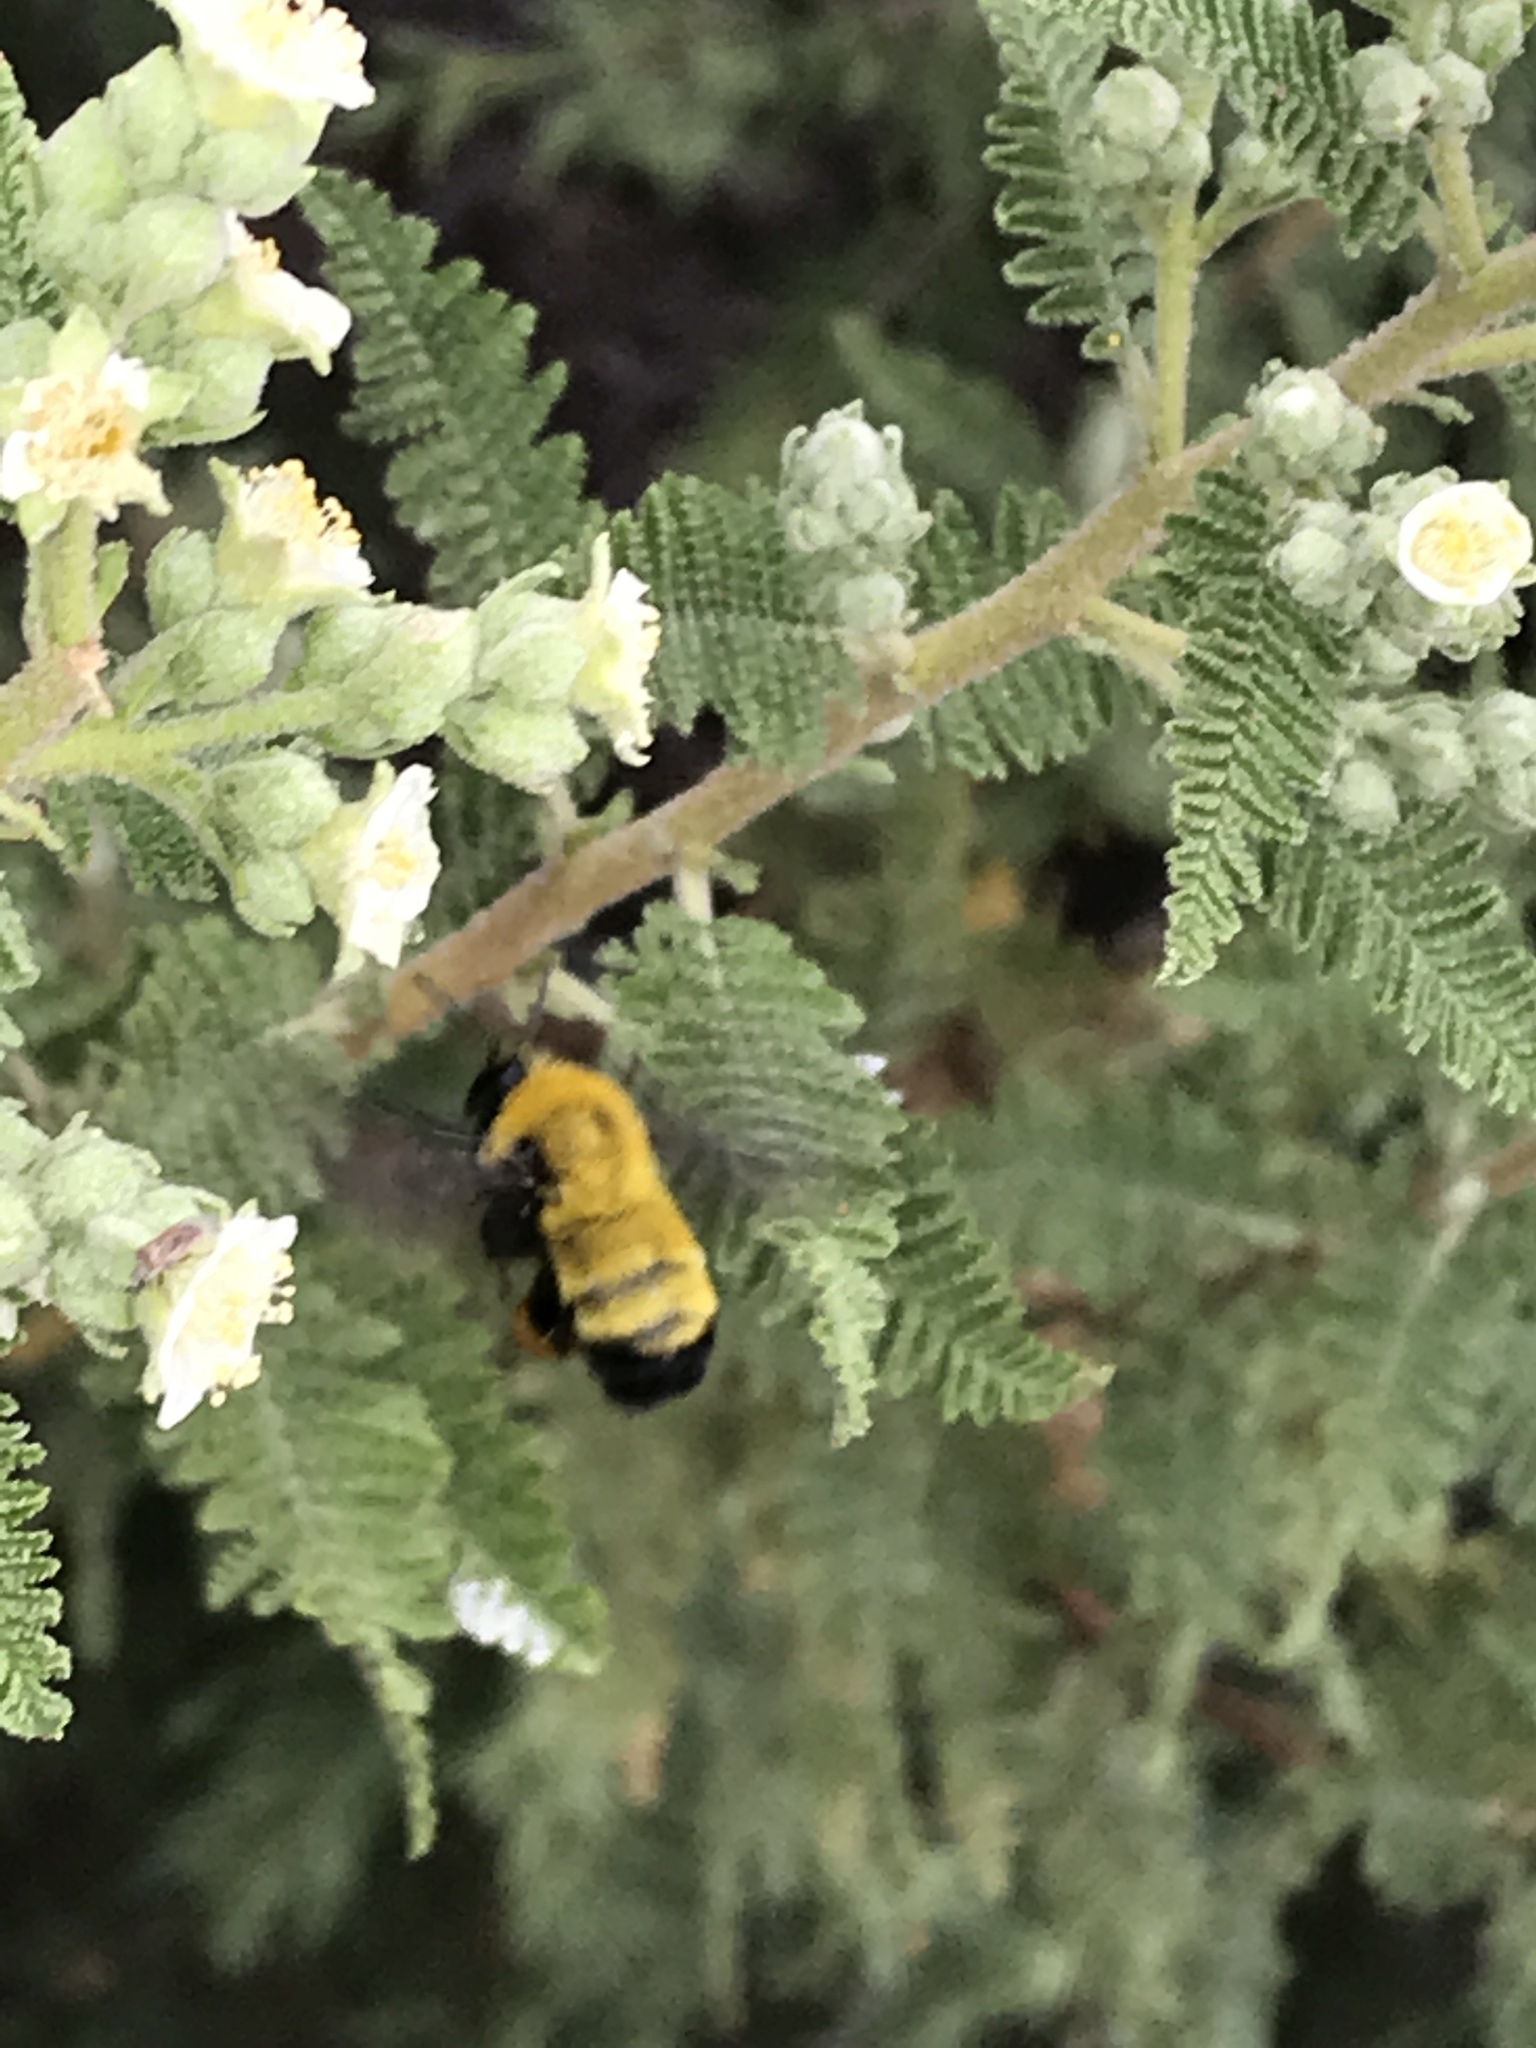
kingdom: Animalia
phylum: Arthropoda
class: Insecta
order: Hymenoptera
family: Apidae
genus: Bombus
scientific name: Bombus morrisoni
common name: Morrison bumble bee
